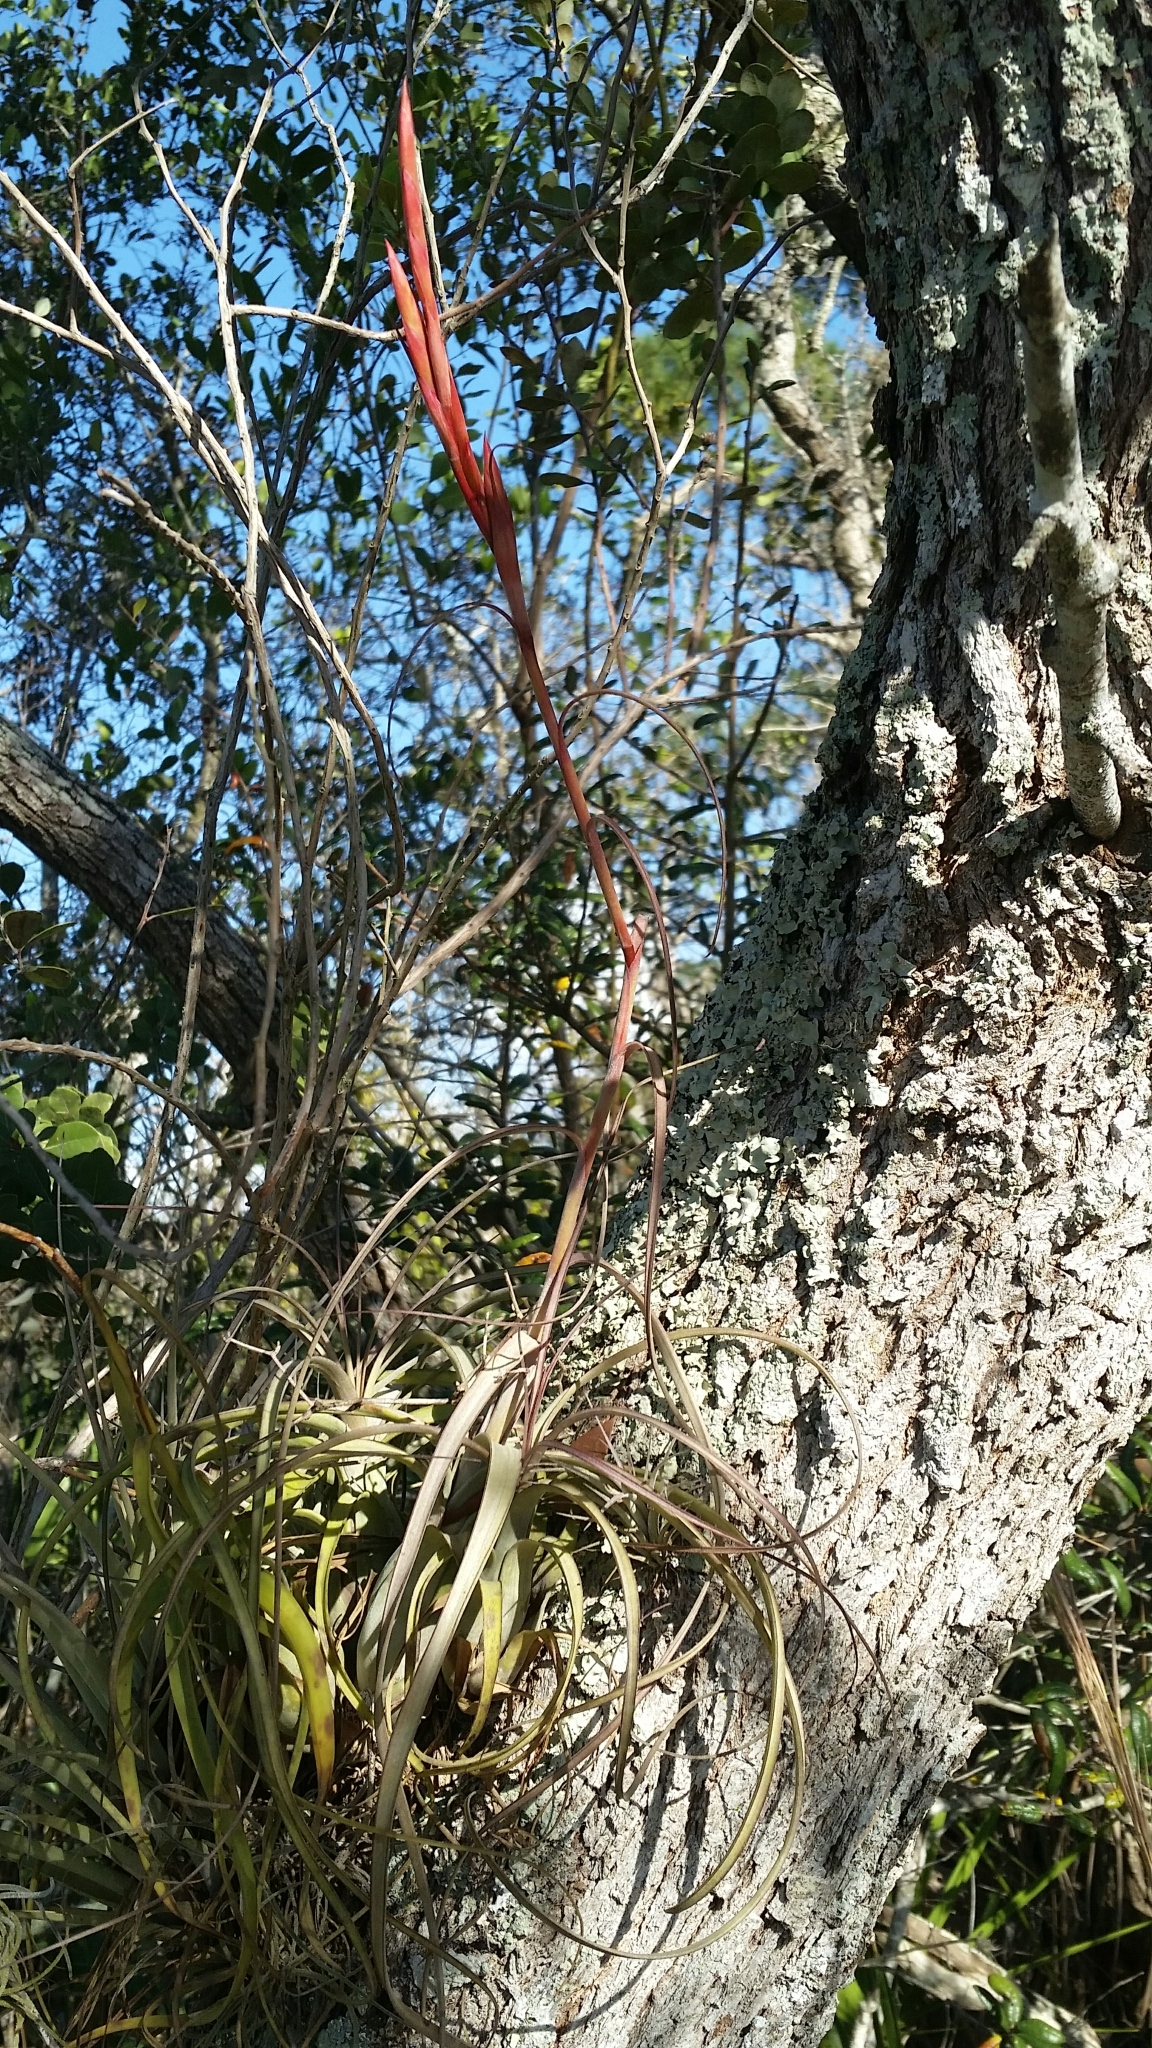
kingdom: Plantae
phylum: Tracheophyta
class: Liliopsida
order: Poales
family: Bromeliaceae
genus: Tillandsia
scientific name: Tillandsia balbisiana
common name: Northern needleleaf
